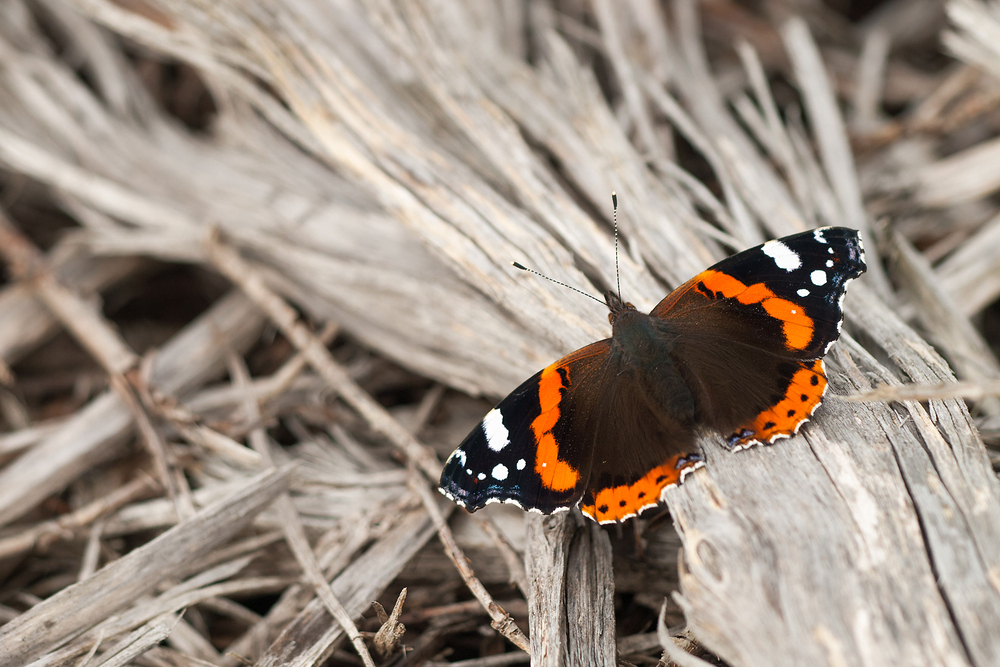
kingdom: Animalia
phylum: Arthropoda
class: Insecta
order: Lepidoptera
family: Nymphalidae
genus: Vanessa
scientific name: Vanessa atalanta
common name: Red admiral
